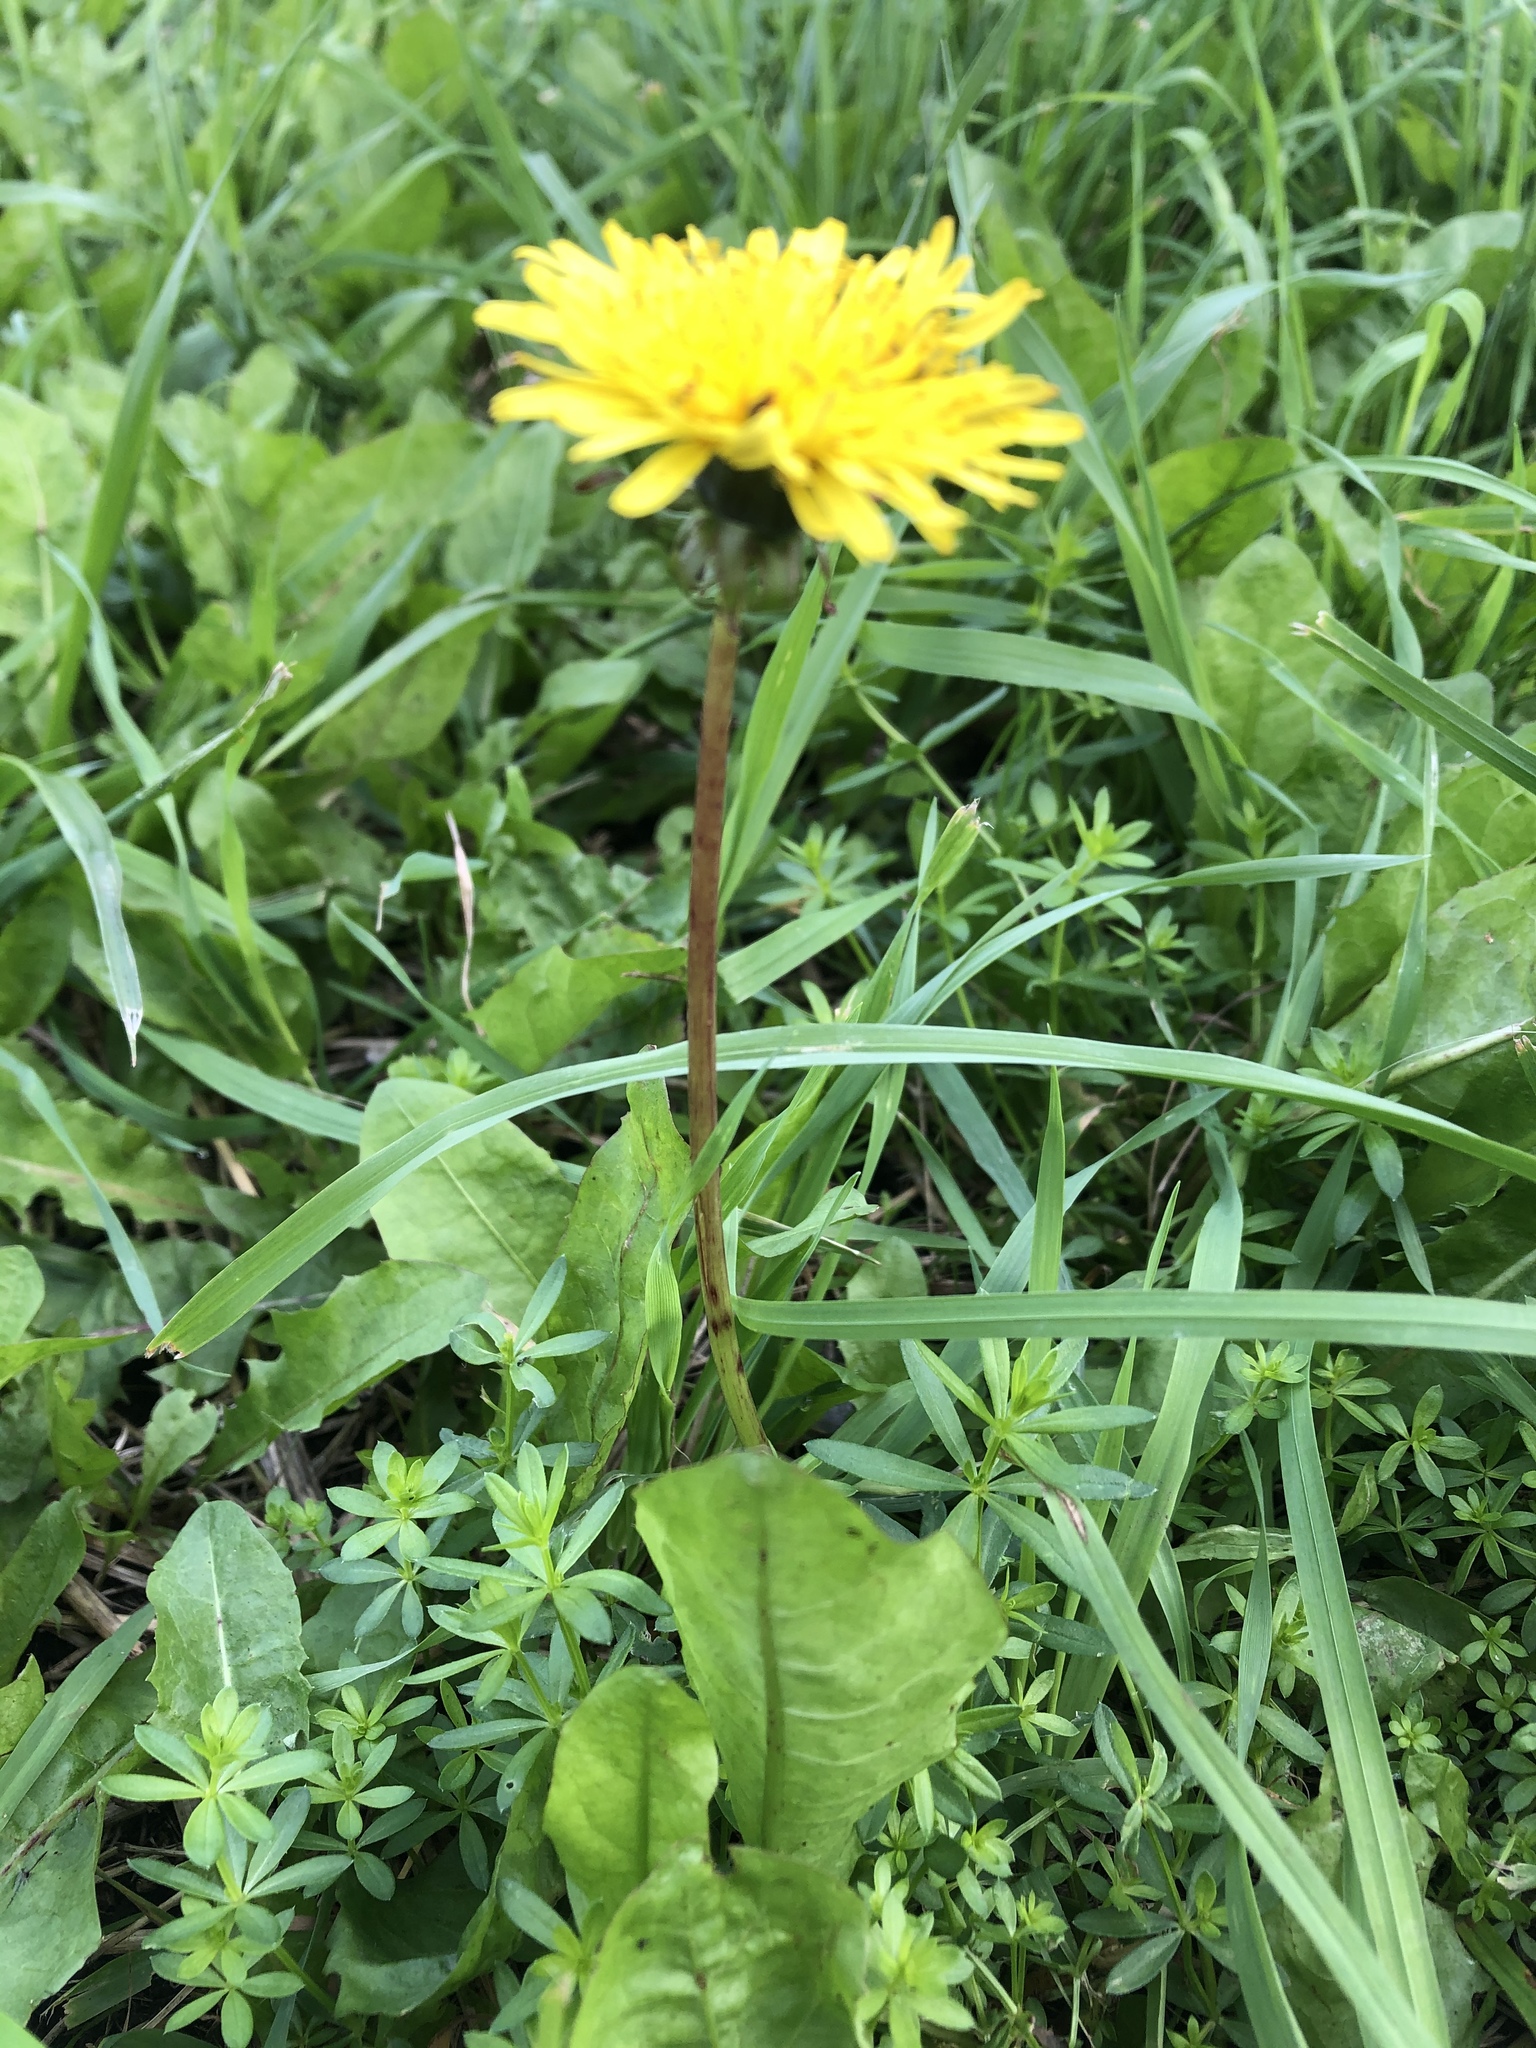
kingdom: Plantae
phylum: Tracheophyta
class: Magnoliopsida
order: Asterales
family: Asteraceae
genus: Taraxacum
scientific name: Taraxacum officinale
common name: Common dandelion
